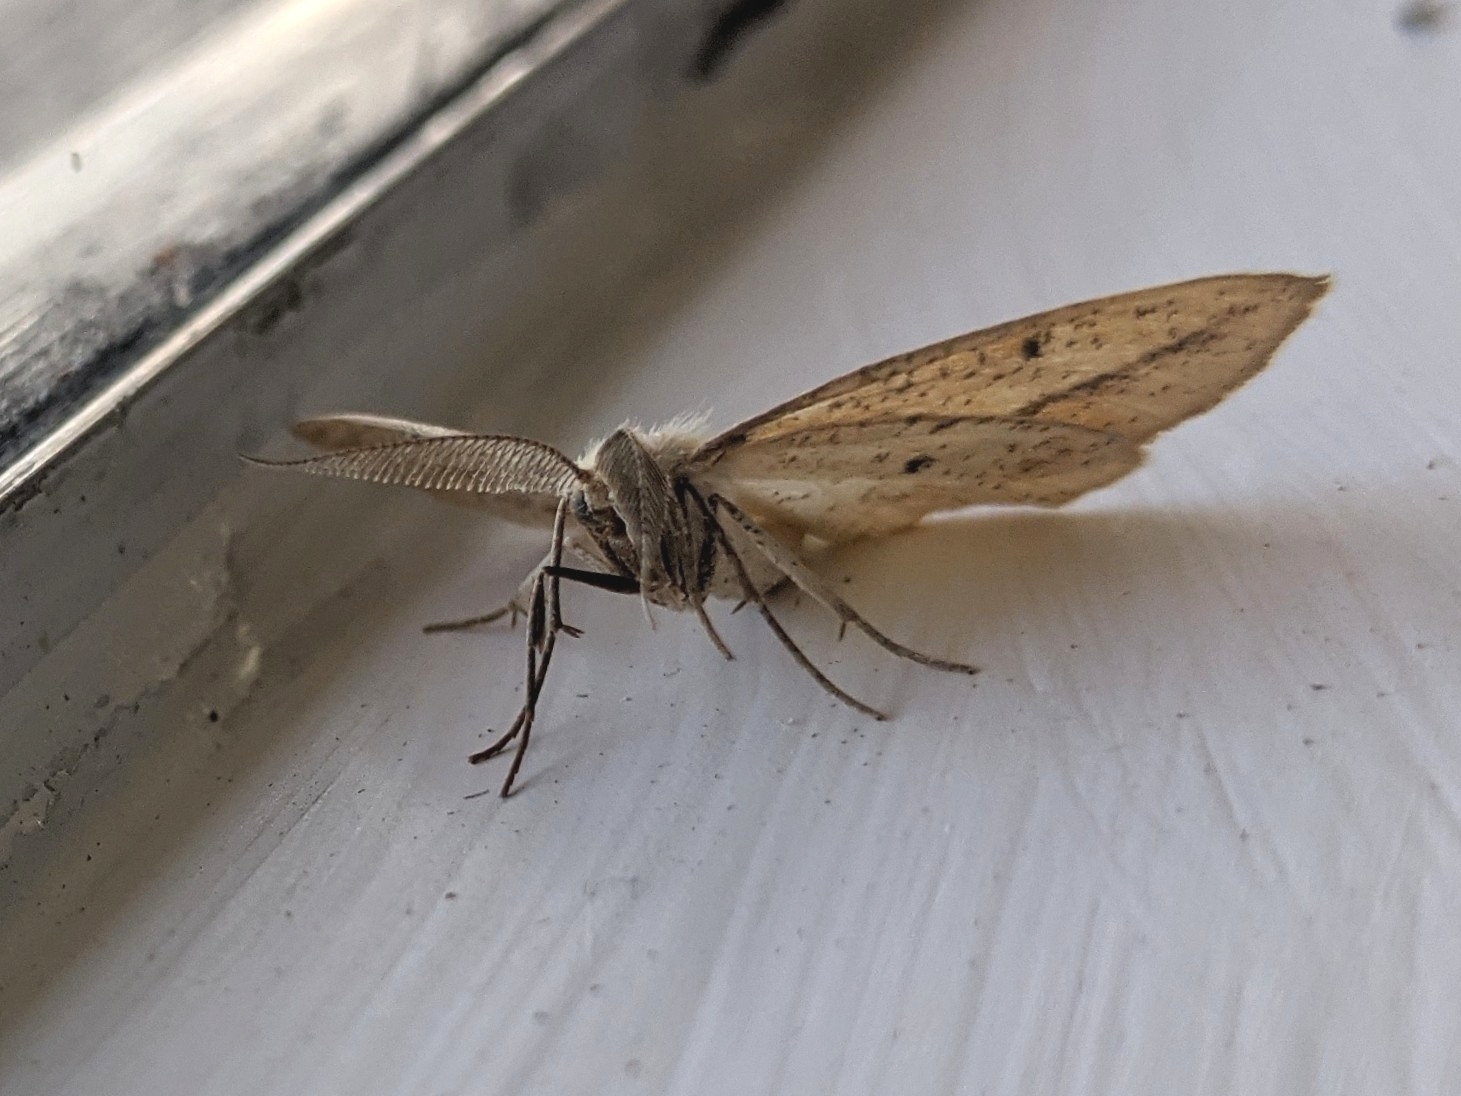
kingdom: Animalia
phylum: Arthropoda
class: Insecta
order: Lepidoptera
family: Geometridae
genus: Lychnosea
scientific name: Lychnosea intermicata
